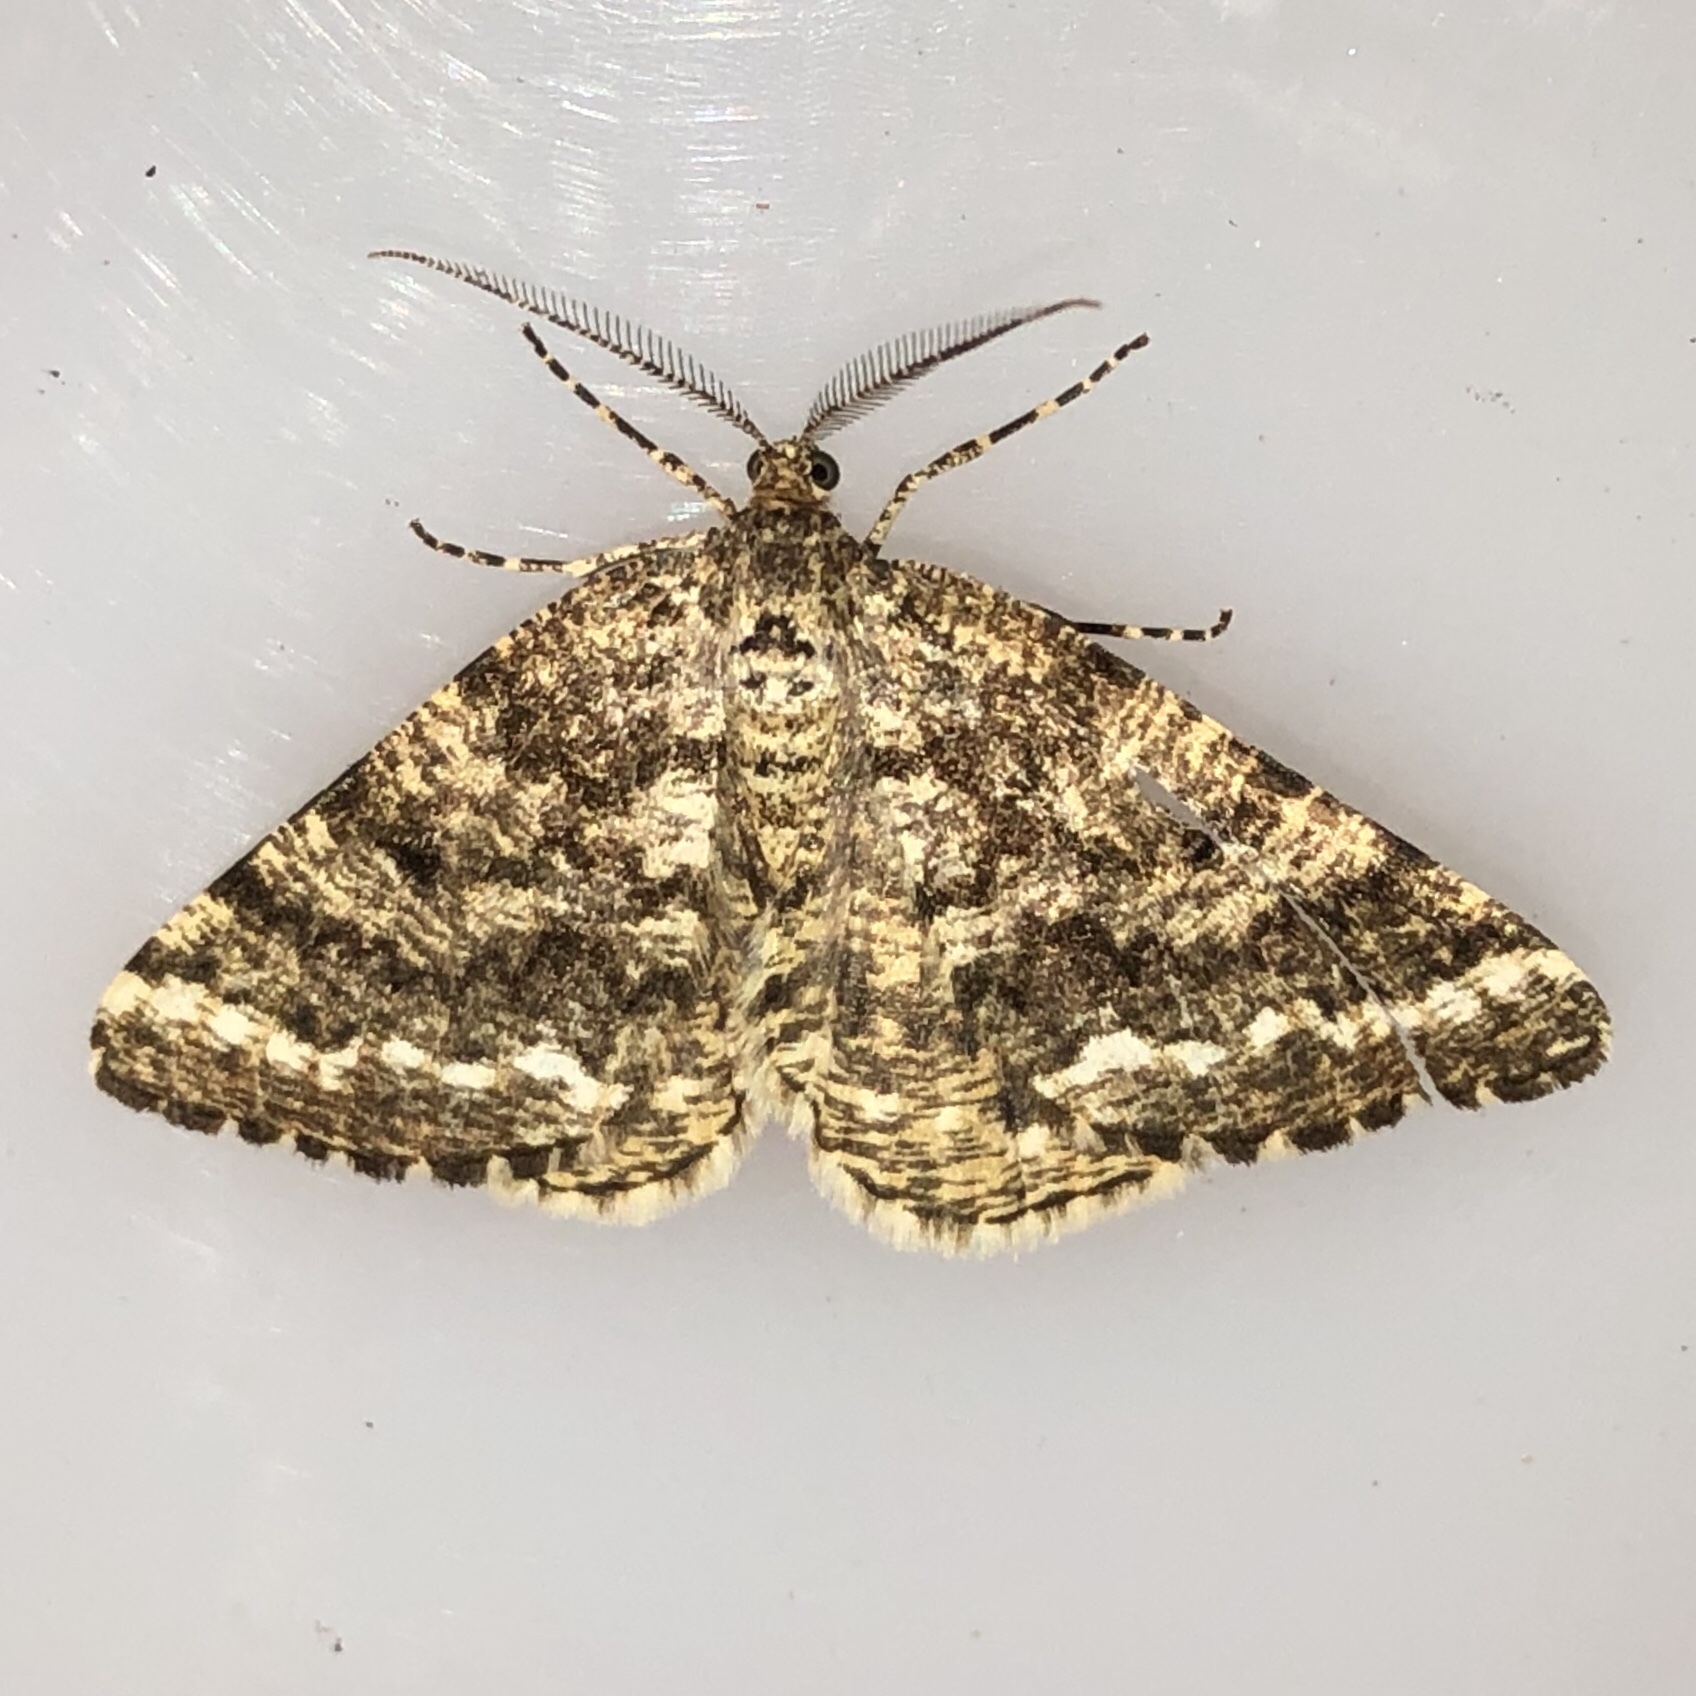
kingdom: Animalia
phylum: Arthropoda
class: Insecta
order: Lepidoptera
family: Geometridae
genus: Eufidonia
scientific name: Eufidonia notataria
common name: Powder moth
